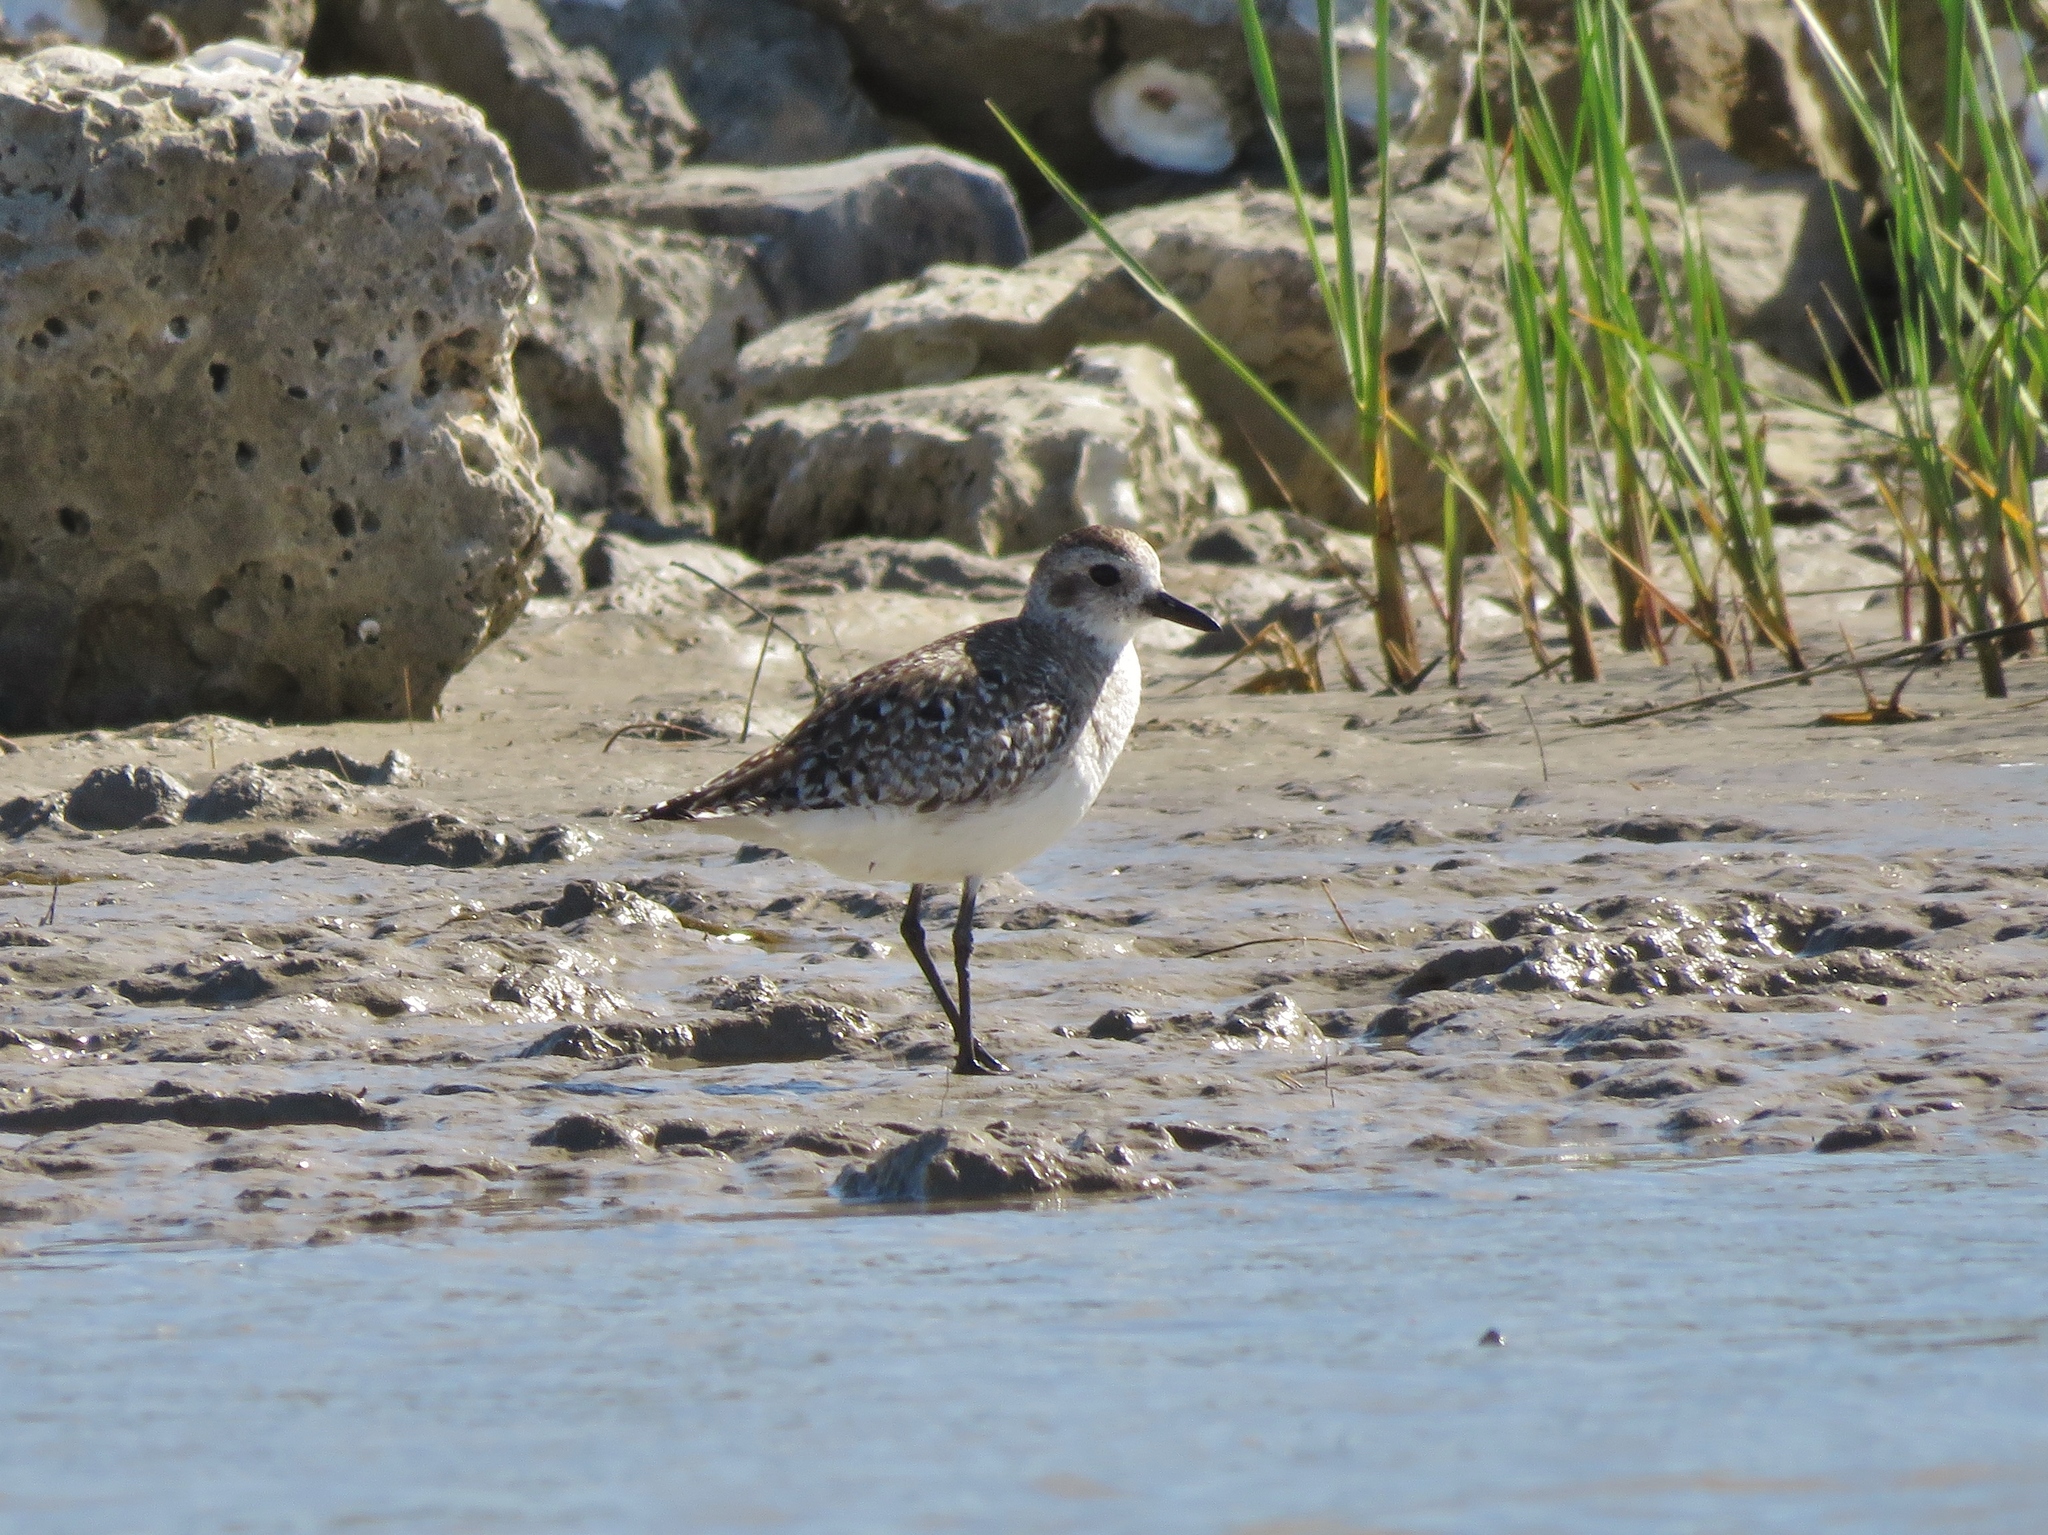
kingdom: Animalia
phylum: Chordata
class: Aves
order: Charadriiformes
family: Charadriidae
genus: Pluvialis
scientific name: Pluvialis squatarola
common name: Grey plover
